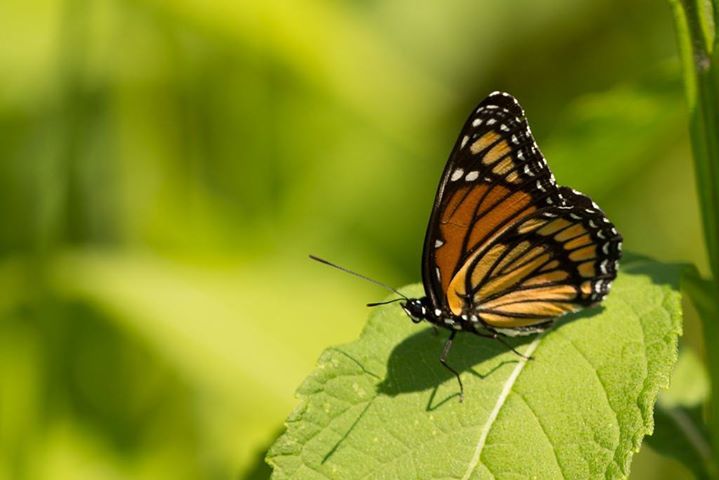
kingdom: Animalia
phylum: Arthropoda
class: Insecta
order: Lepidoptera
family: Nymphalidae
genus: Limenitis
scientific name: Limenitis archippus
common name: Viceroy
